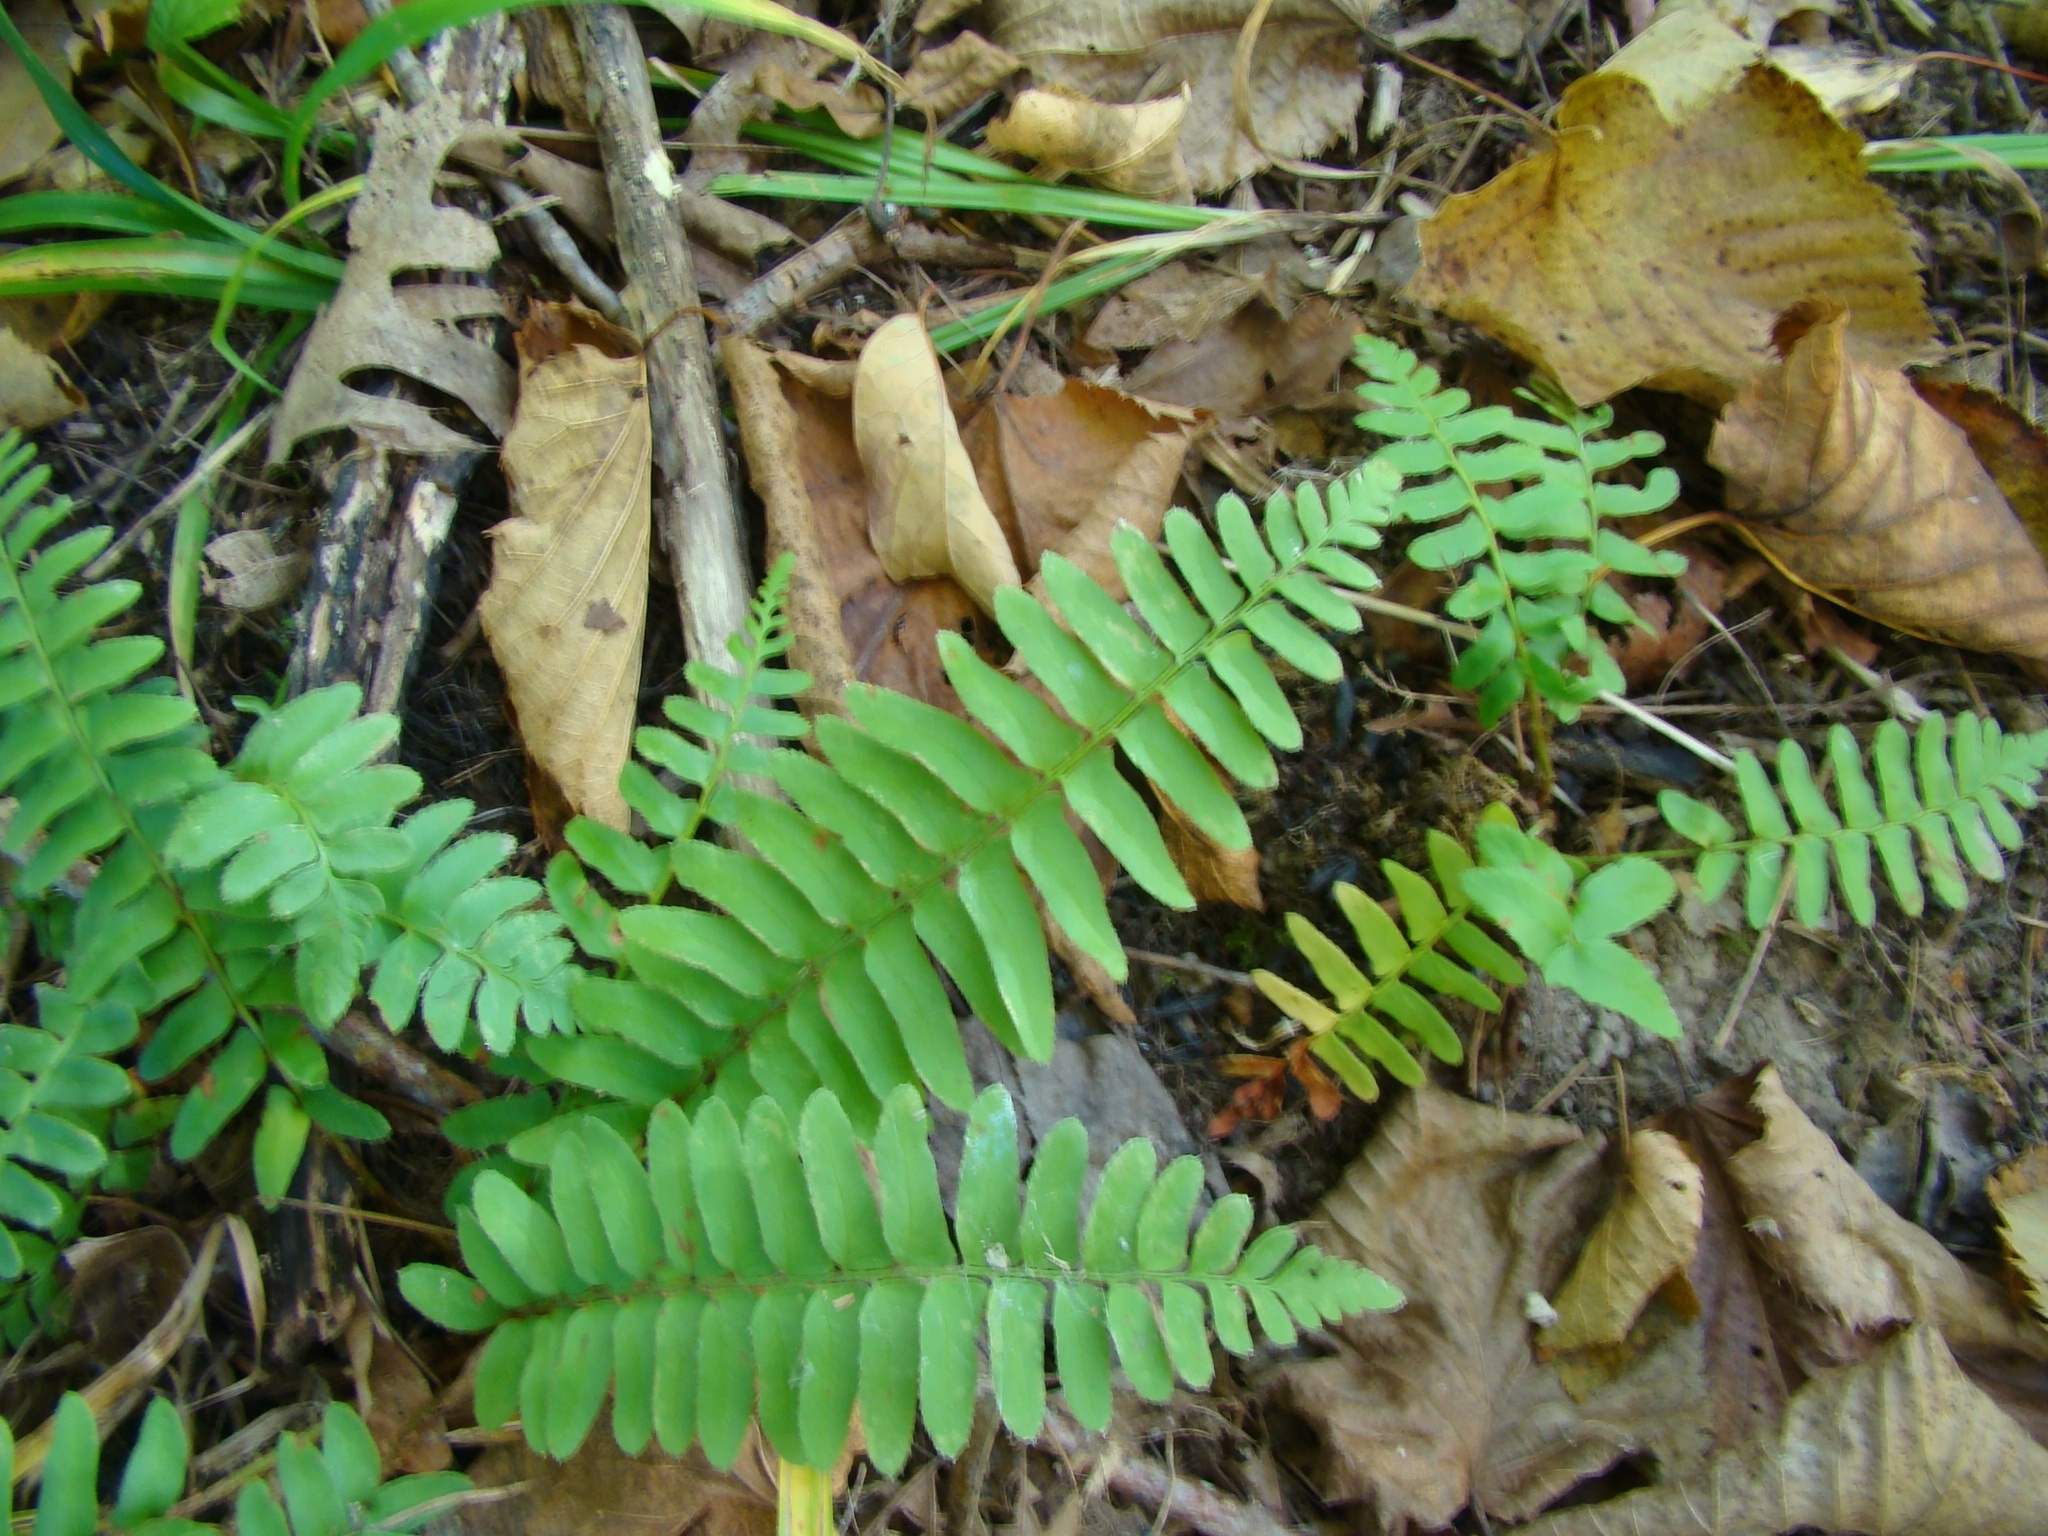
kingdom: Plantae
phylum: Tracheophyta
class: Polypodiopsida
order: Polypodiales
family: Dryopteridaceae
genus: Polystichum
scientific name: Polystichum acrostichoides
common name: Christmas fern
